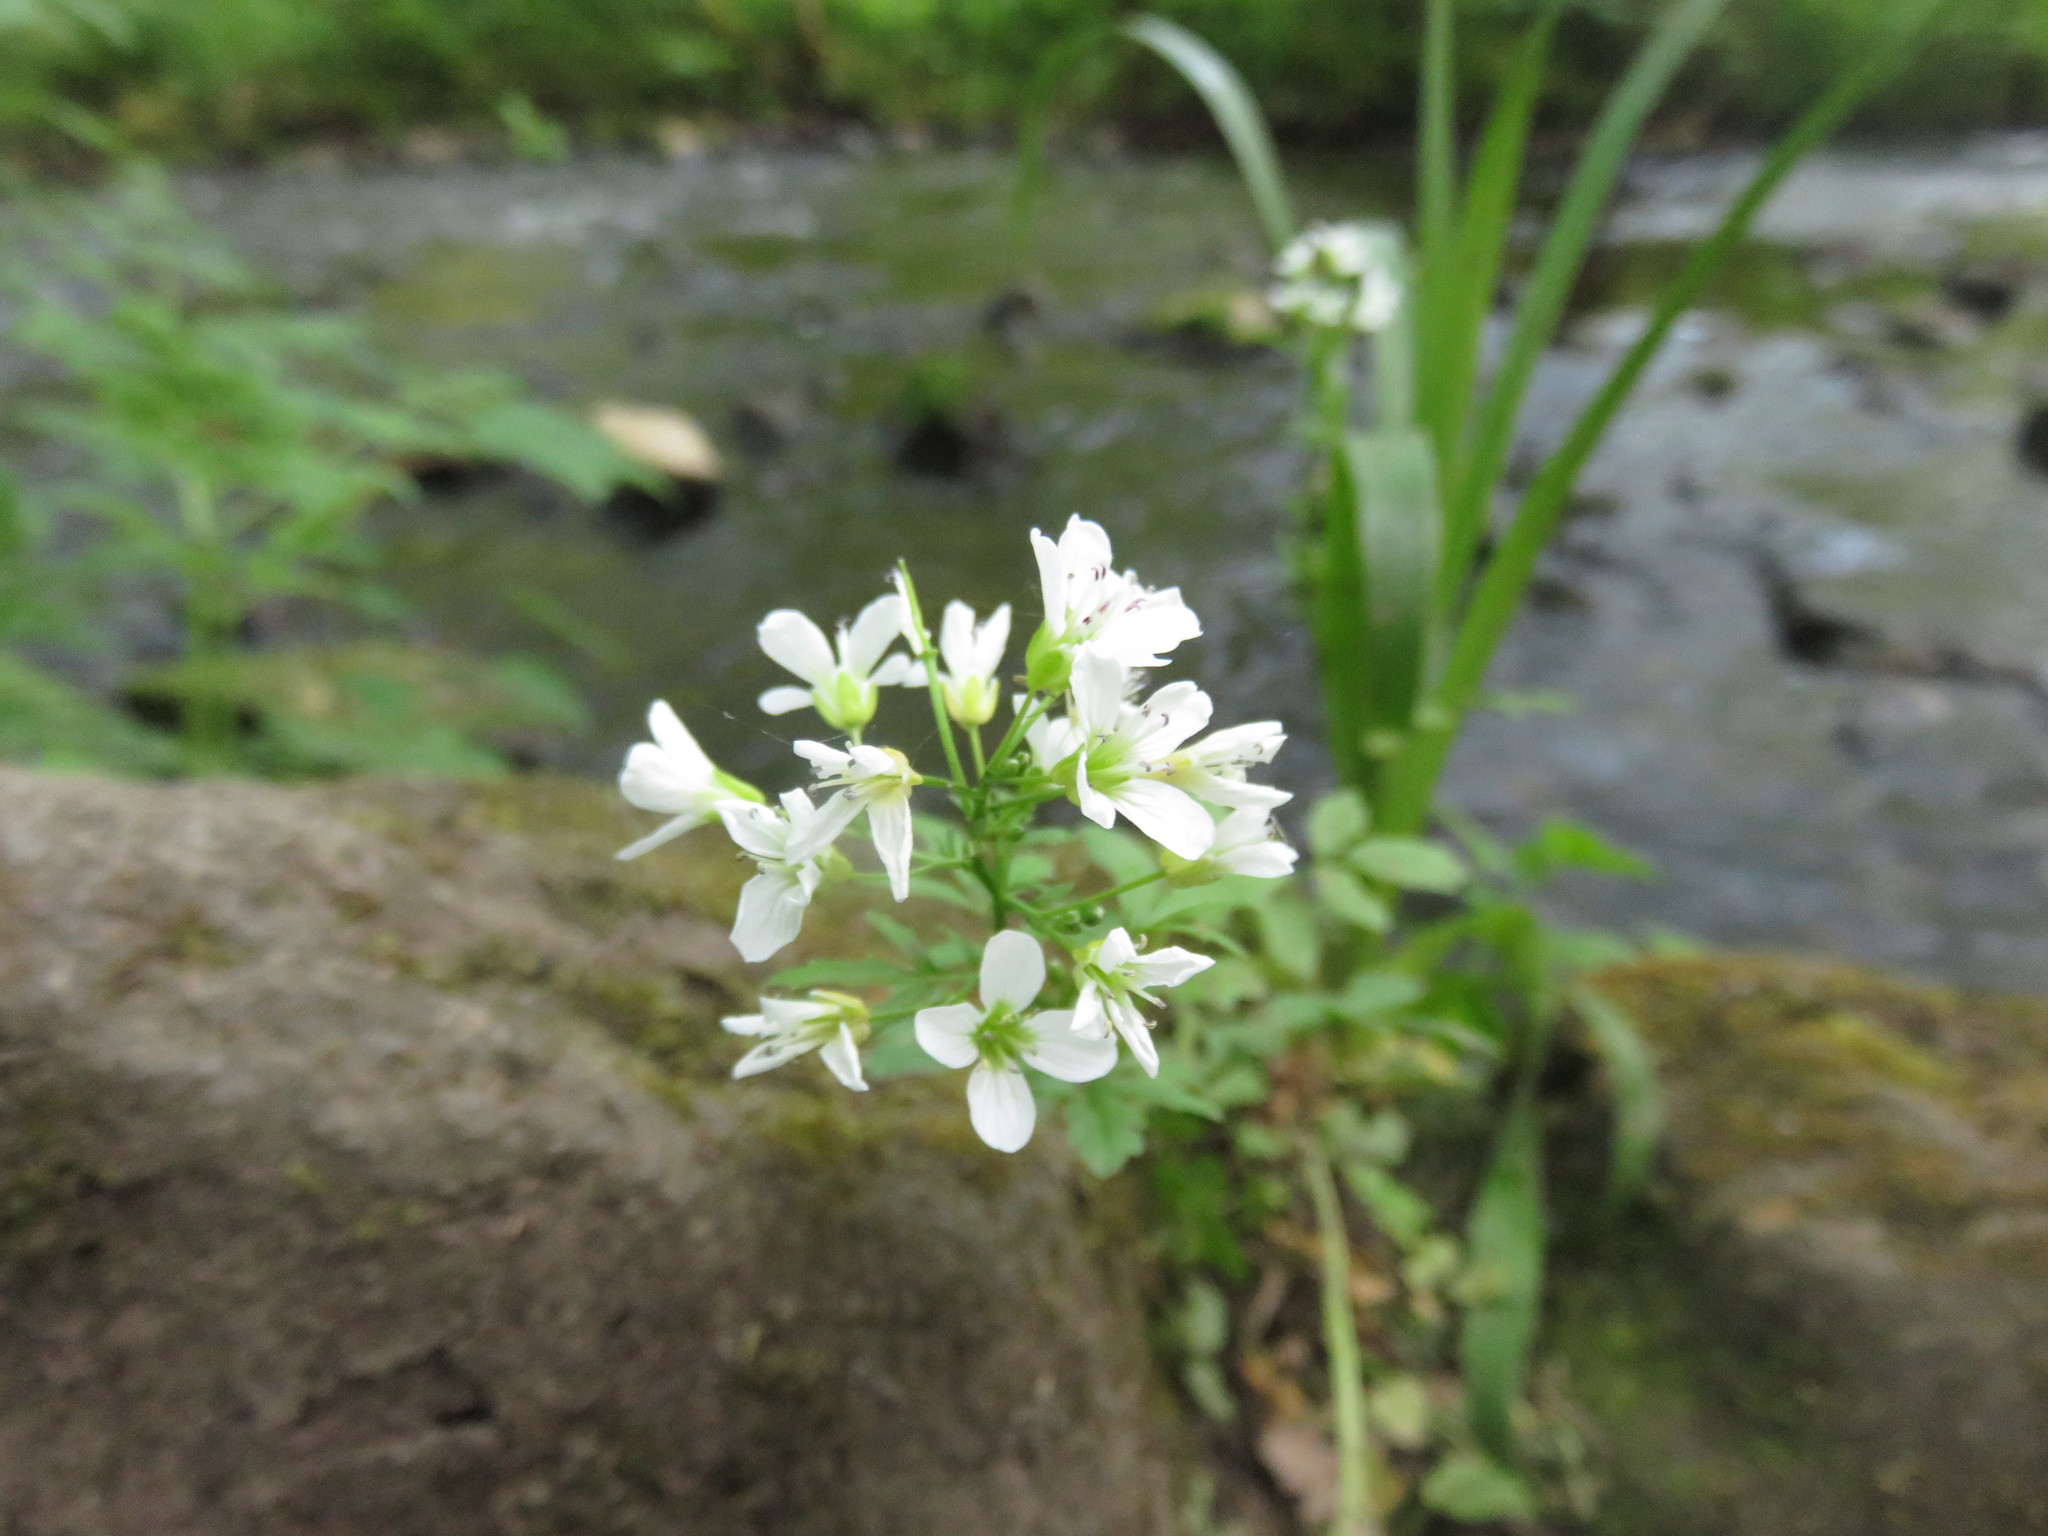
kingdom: Plantae
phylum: Tracheophyta
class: Magnoliopsida
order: Brassicales
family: Brassicaceae
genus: Cardamine
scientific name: Cardamine amara
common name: Large bitter-cress
